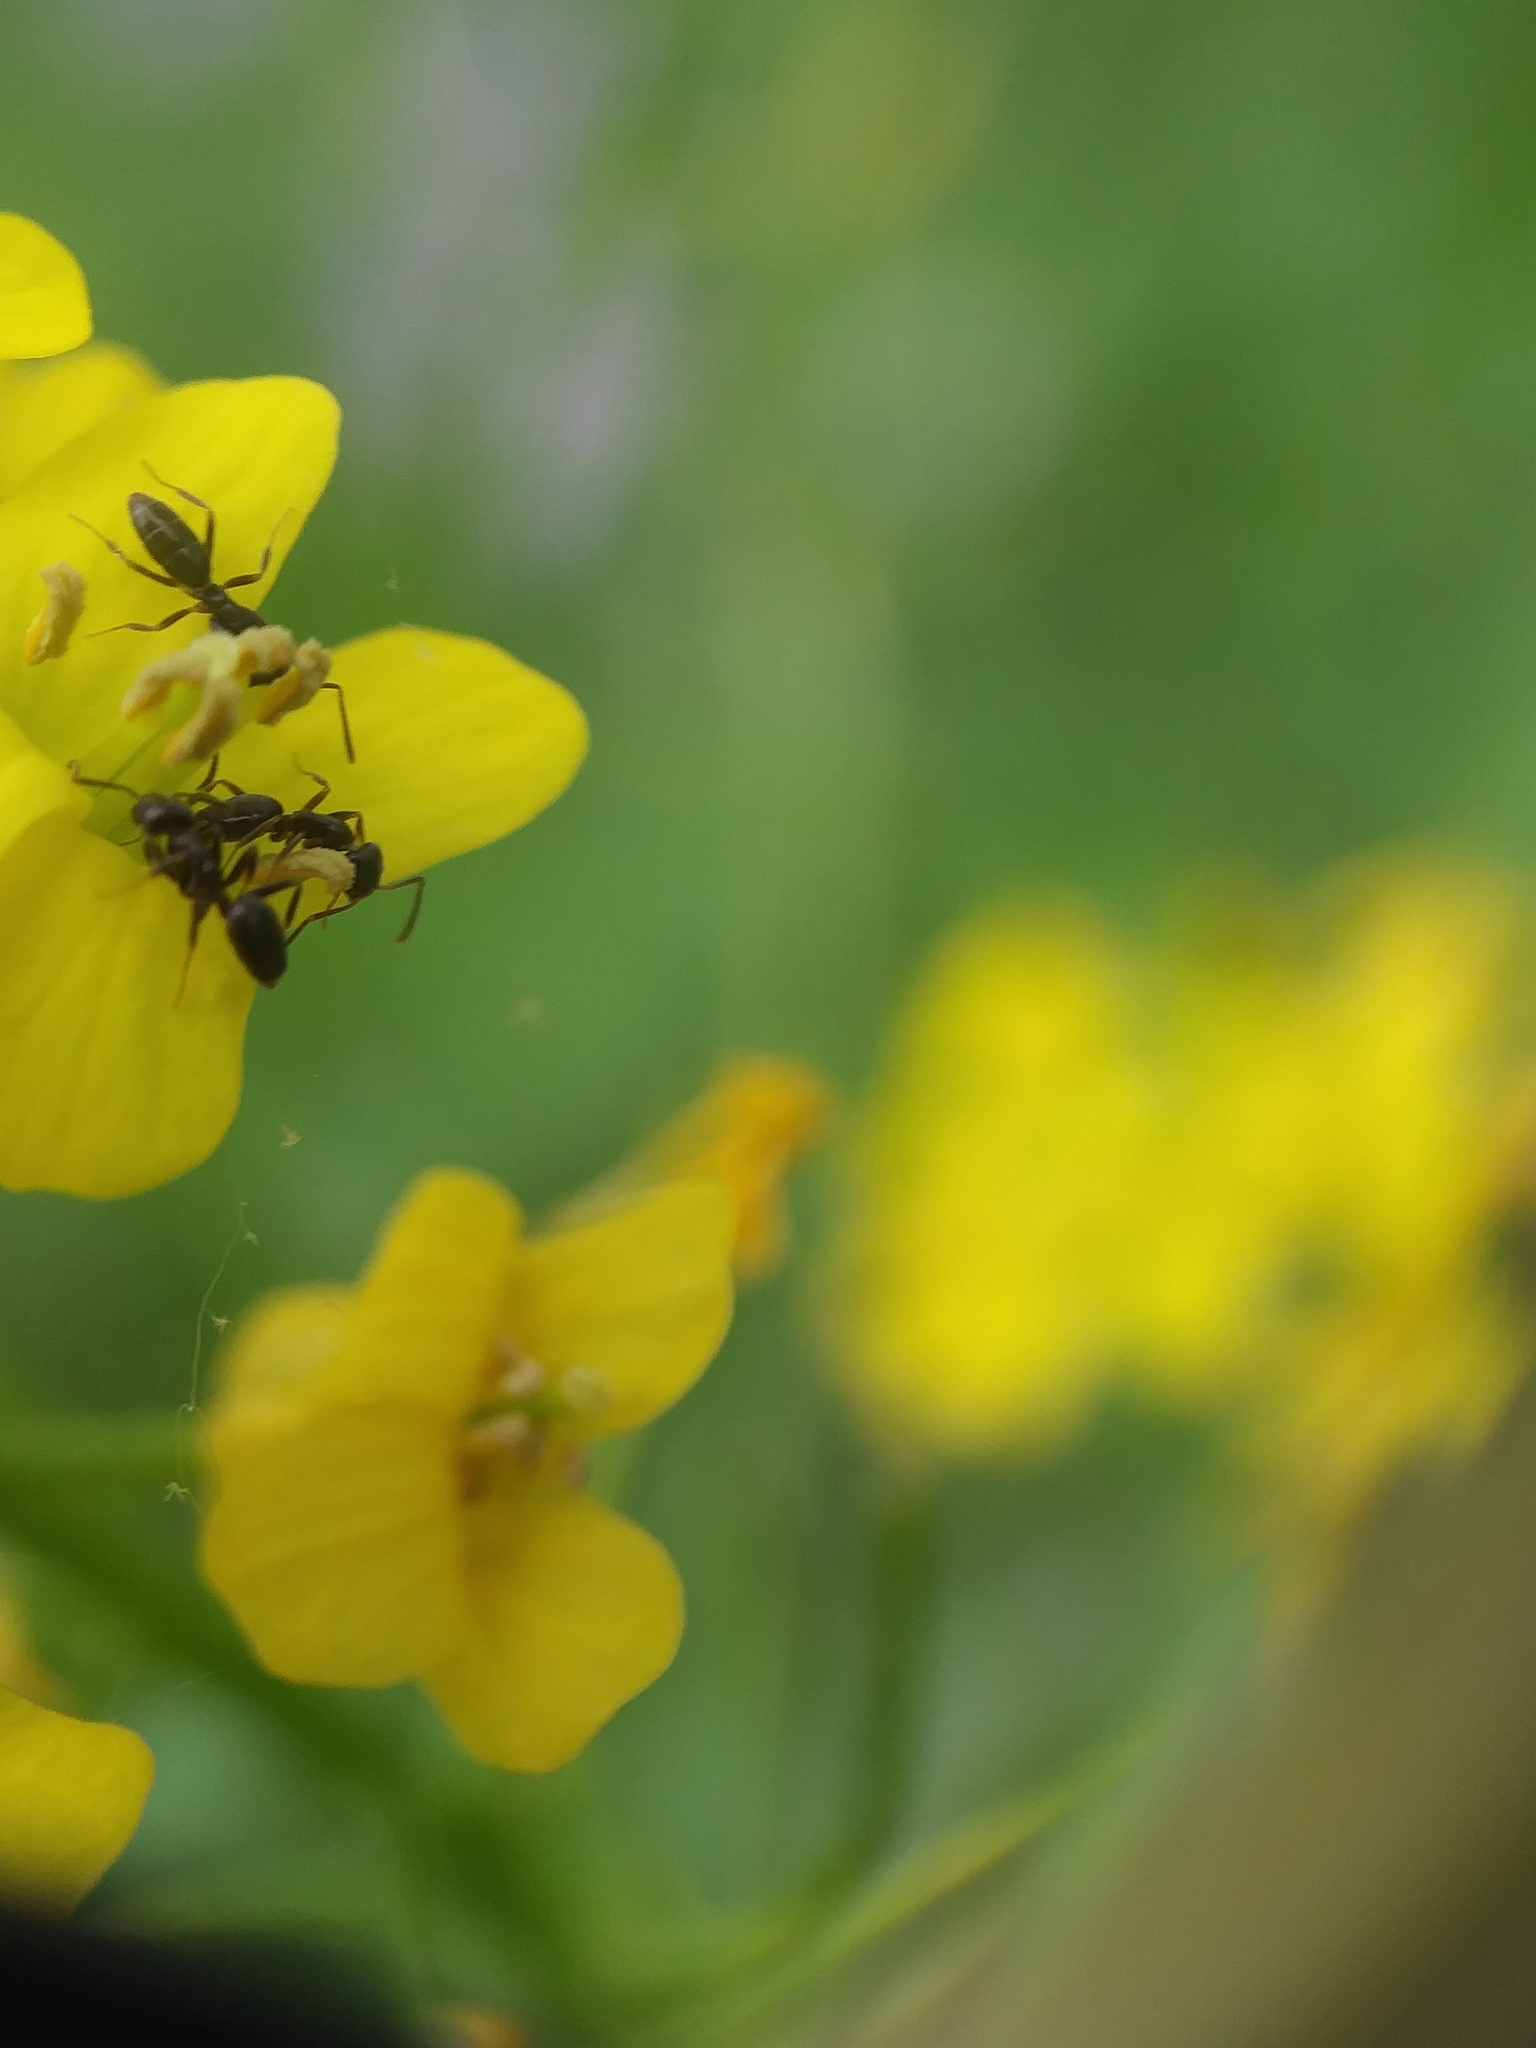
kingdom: Animalia
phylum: Arthropoda
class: Insecta
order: Hymenoptera
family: Formicidae
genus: Tapinoma
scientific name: Tapinoma sessile
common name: Odorous house ant
